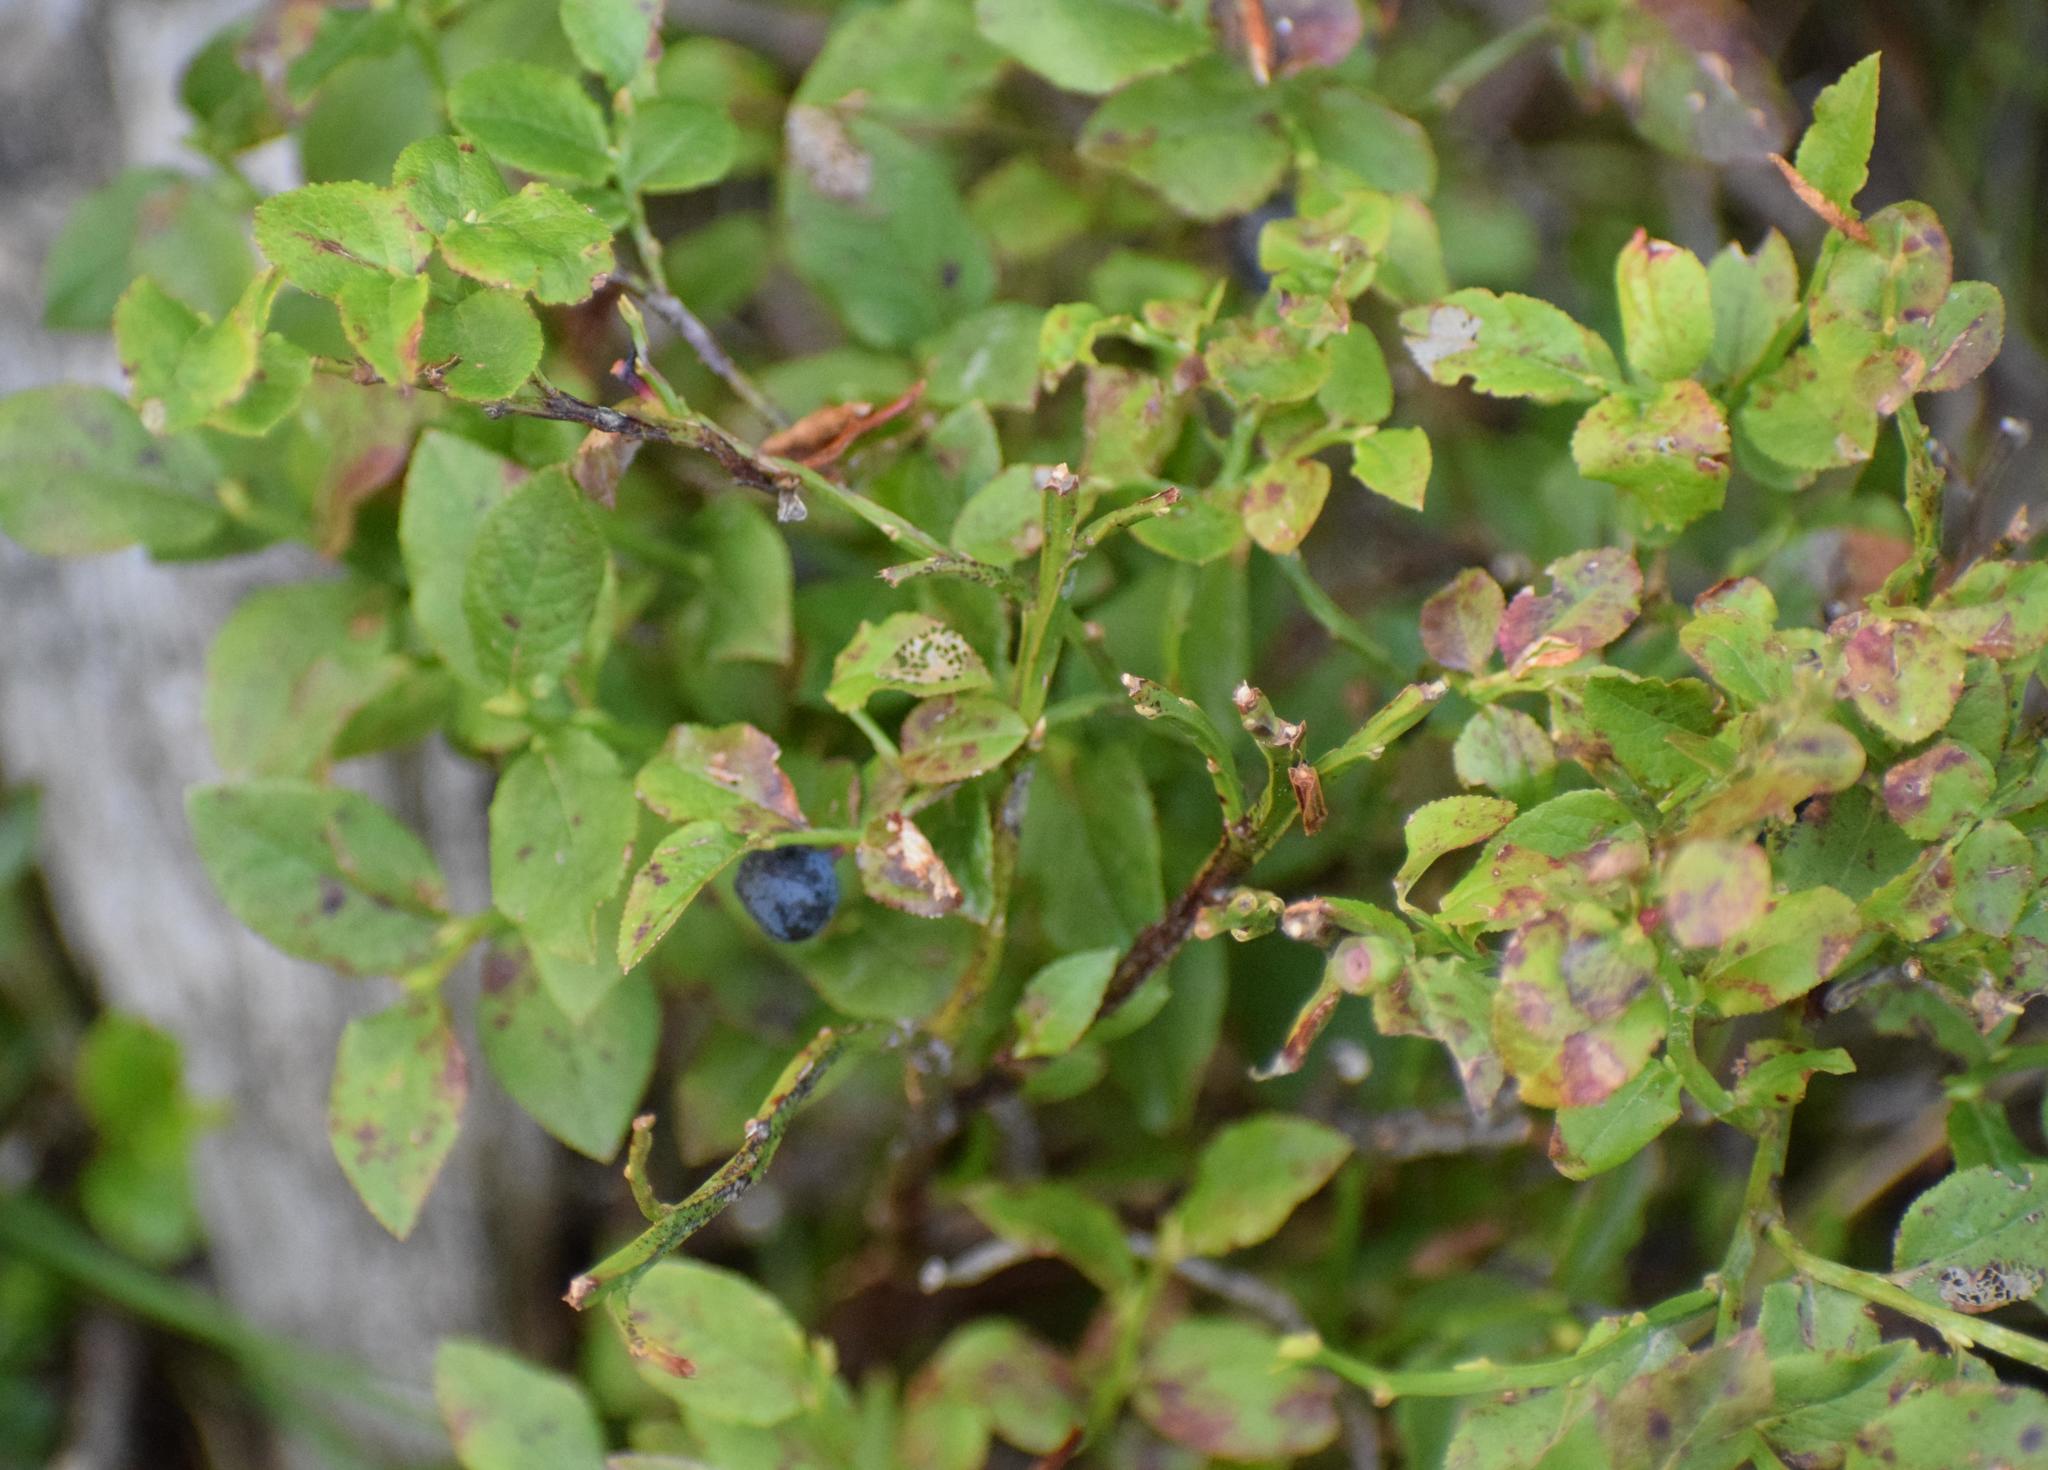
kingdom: Plantae
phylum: Tracheophyta
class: Magnoliopsida
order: Ericales
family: Ericaceae
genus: Vaccinium
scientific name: Vaccinium myrtillus
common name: Bilberry
